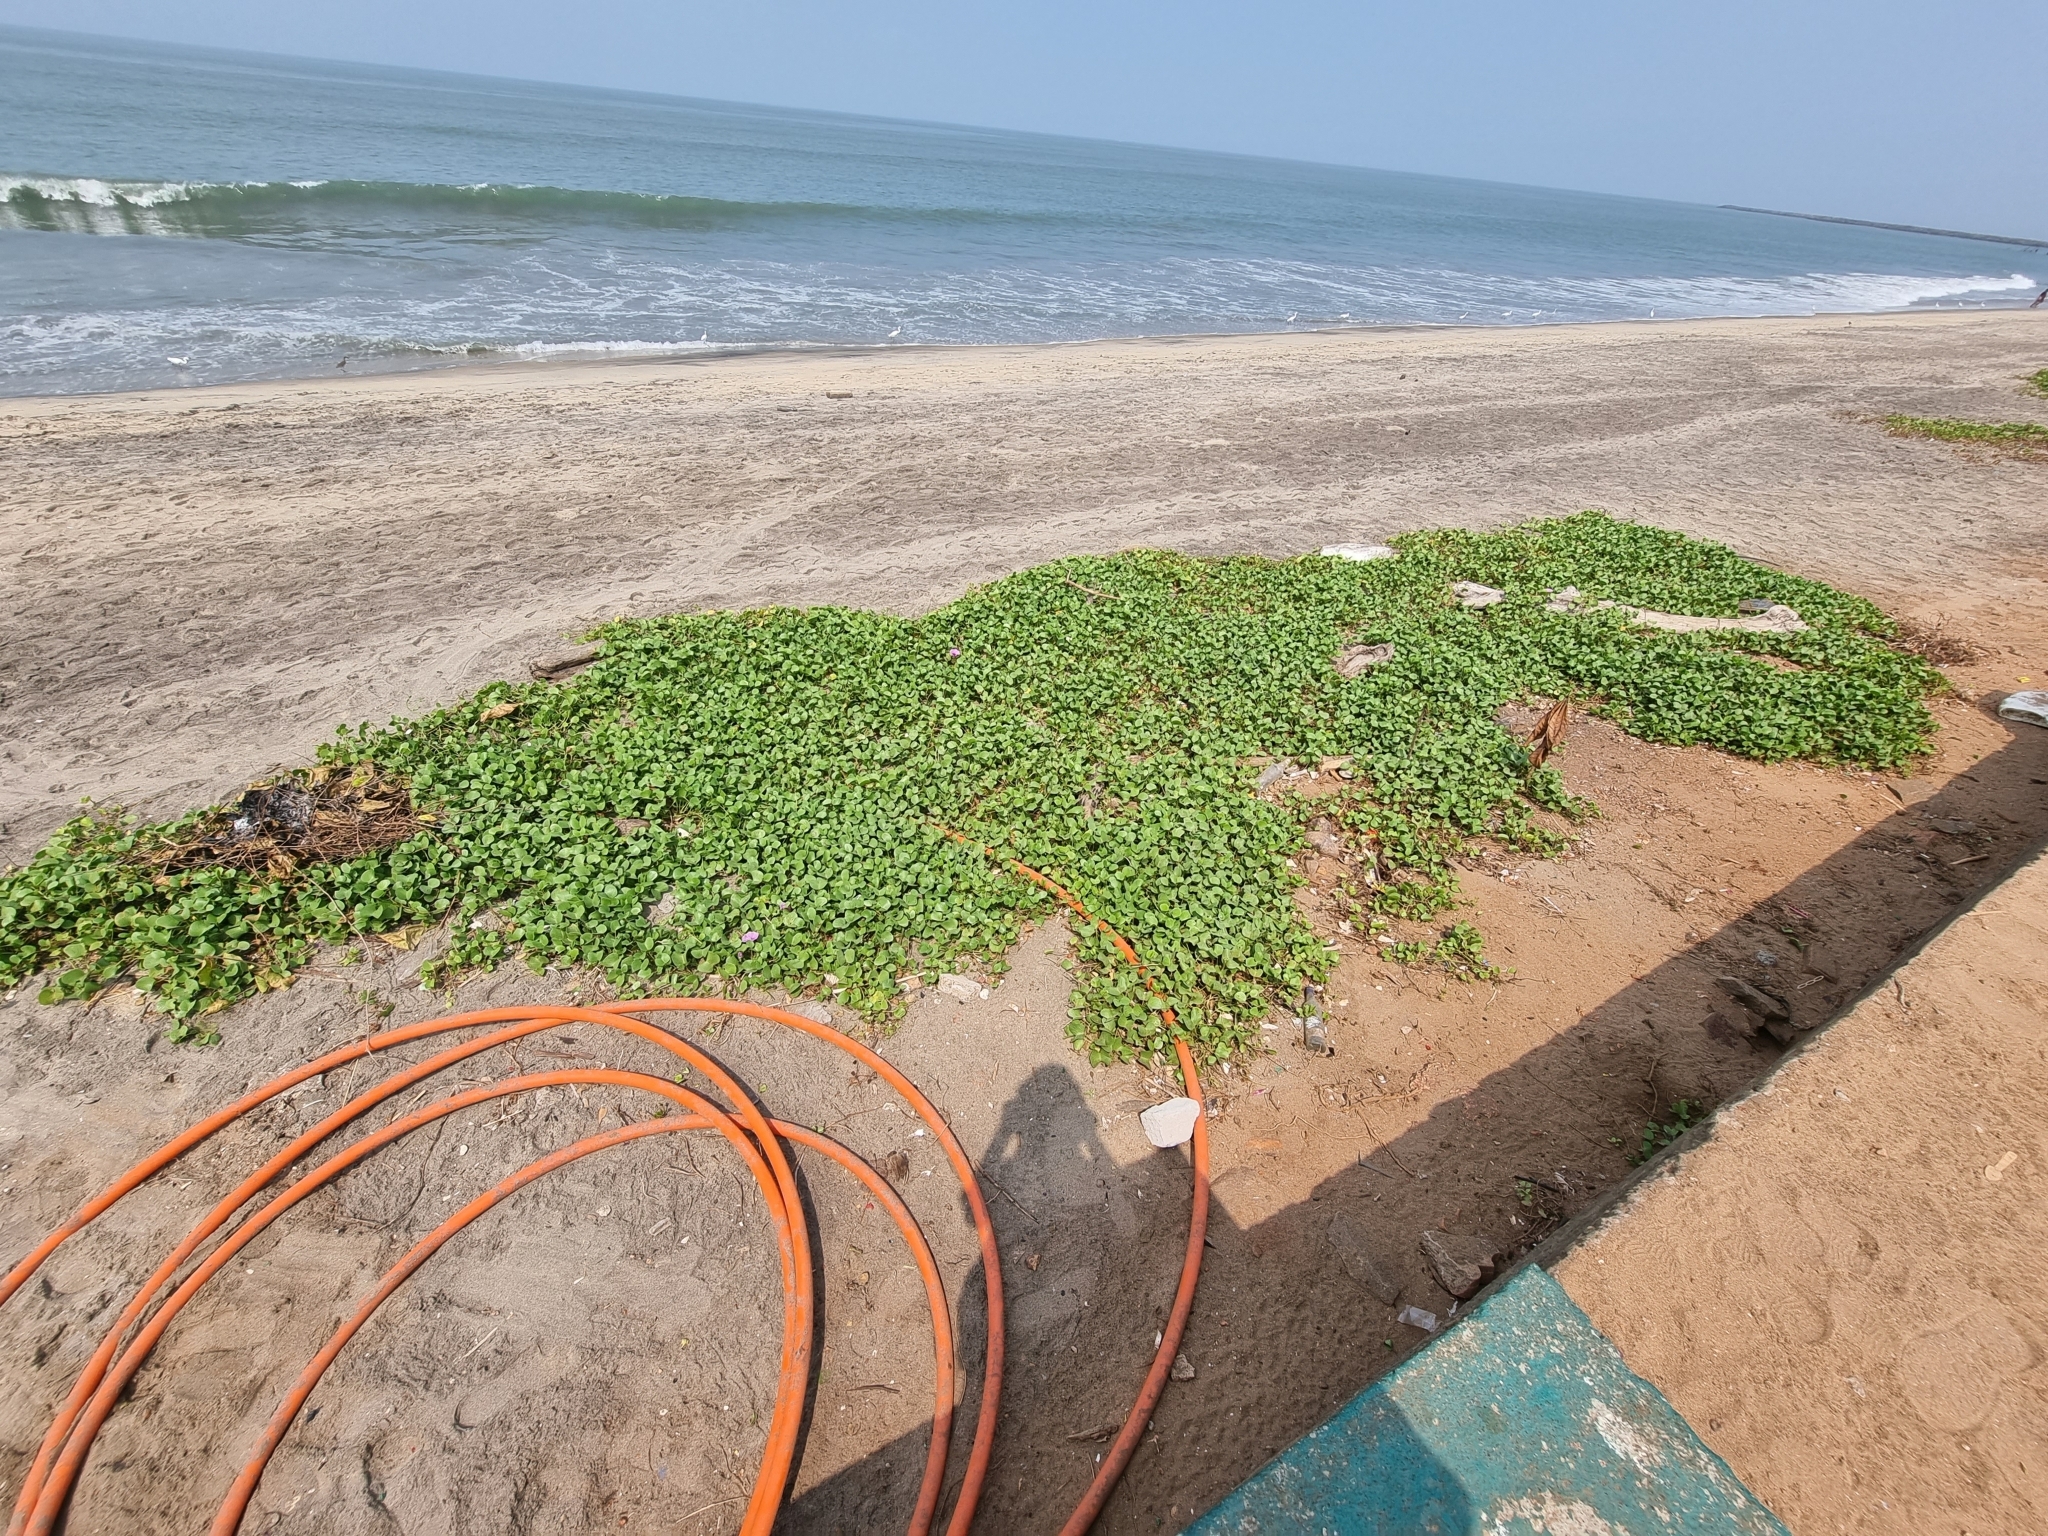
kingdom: Plantae
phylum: Tracheophyta
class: Magnoliopsida
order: Solanales
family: Convolvulaceae
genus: Ipomoea
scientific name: Ipomoea pes-caprae
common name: Beach morning glory
